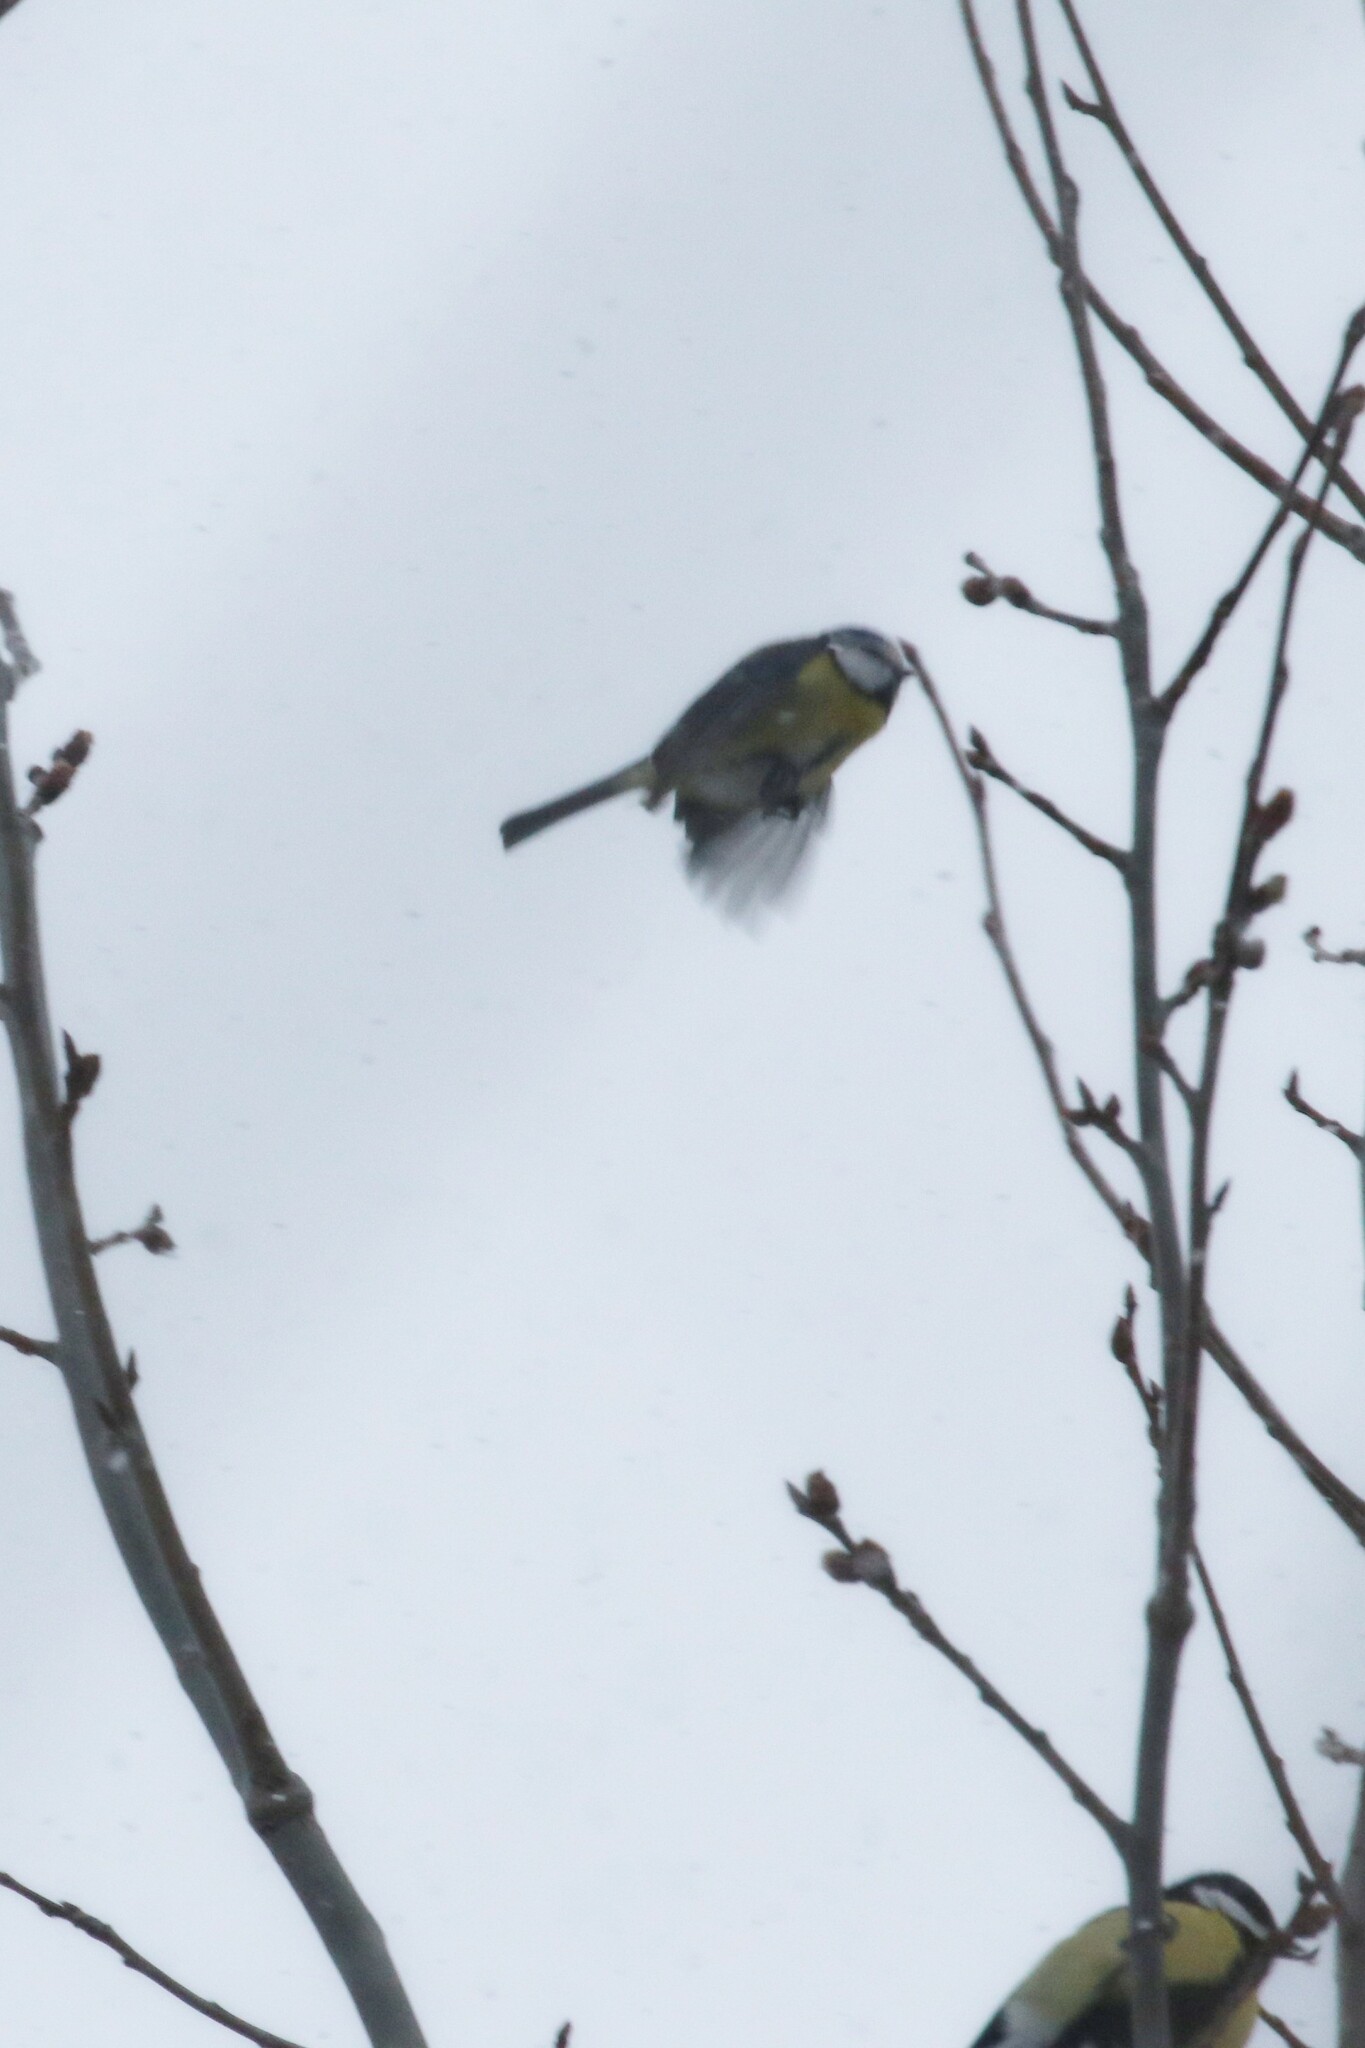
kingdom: Animalia
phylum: Chordata
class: Aves
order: Passeriformes
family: Paridae
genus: Cyanistes
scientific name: Cyanistes caeruleus
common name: Eurasian blue tit
